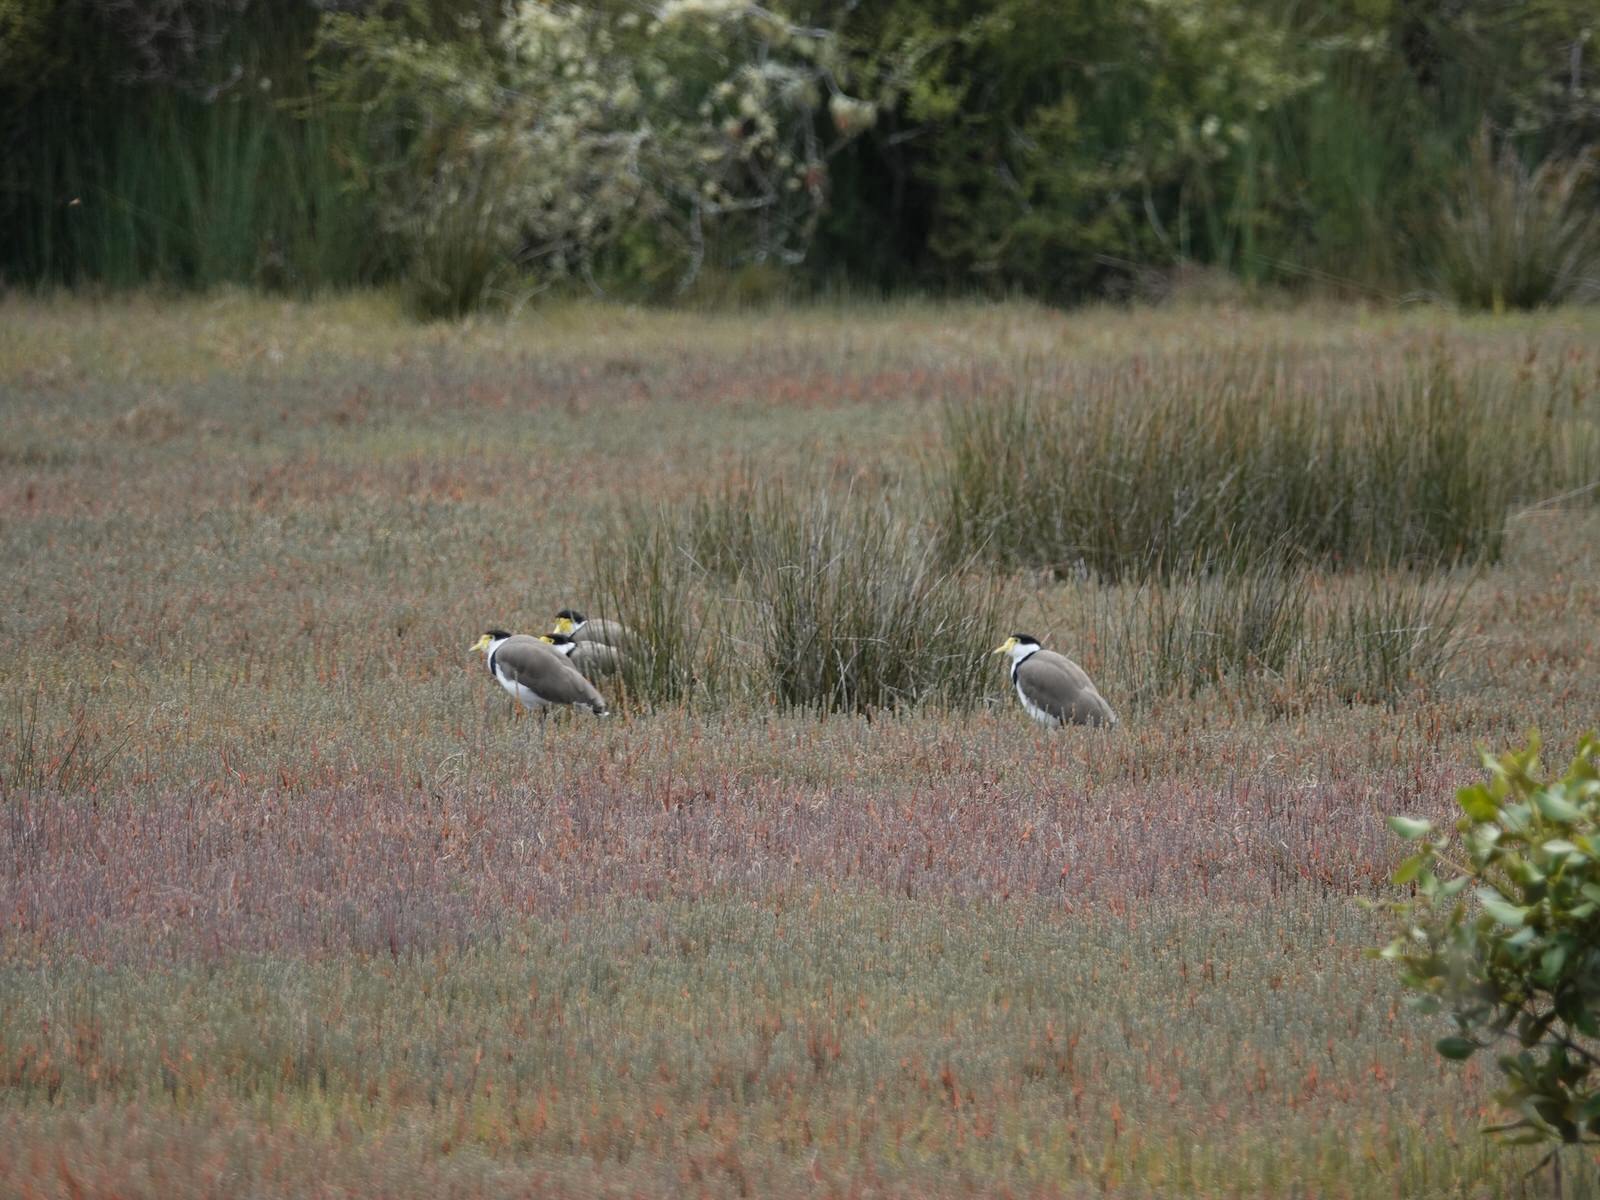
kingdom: Animalia
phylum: Chordata
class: Aves
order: Charadriiformes
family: Charadriidae
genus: Vanellus
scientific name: Vanellus miles
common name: Masked lapwing
